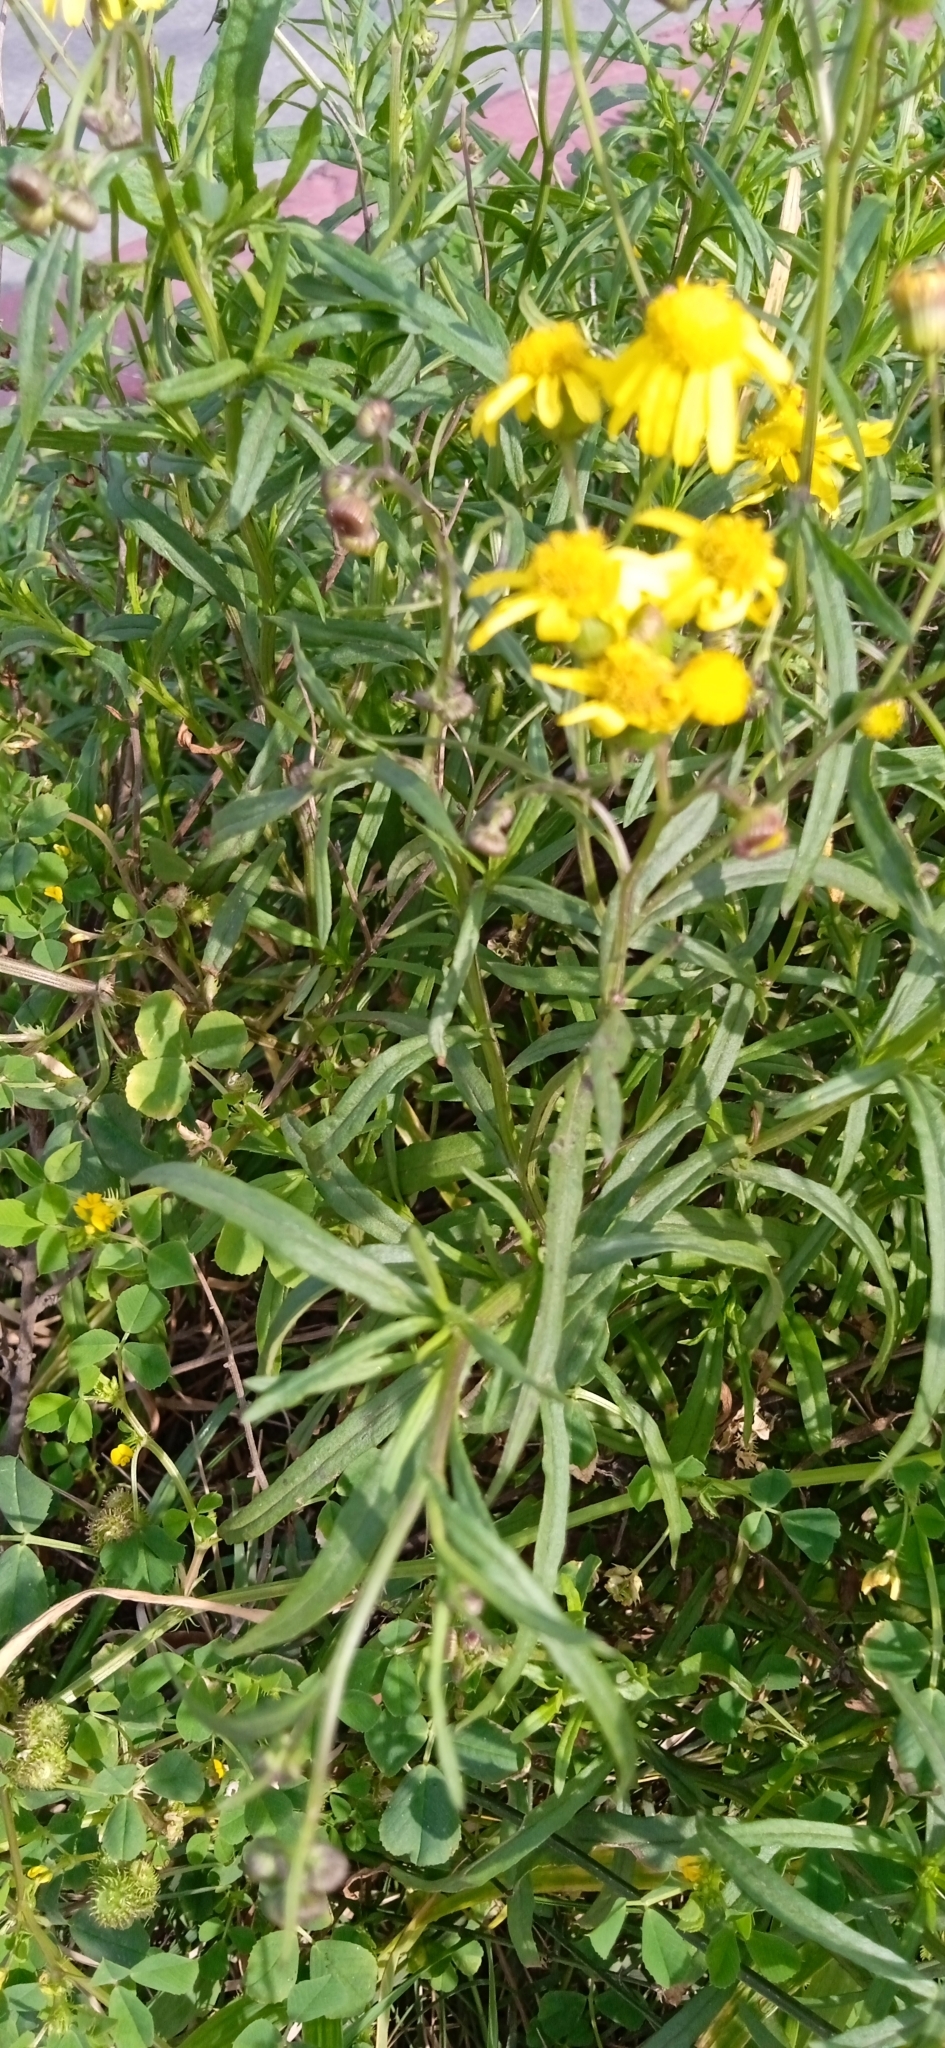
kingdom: Plantae
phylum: Tracheophyta
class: Magnoliopsida
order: Asterales
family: Asteraceae
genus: Senecio
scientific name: Senecio madagascariensis
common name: Madagascar ragwort
